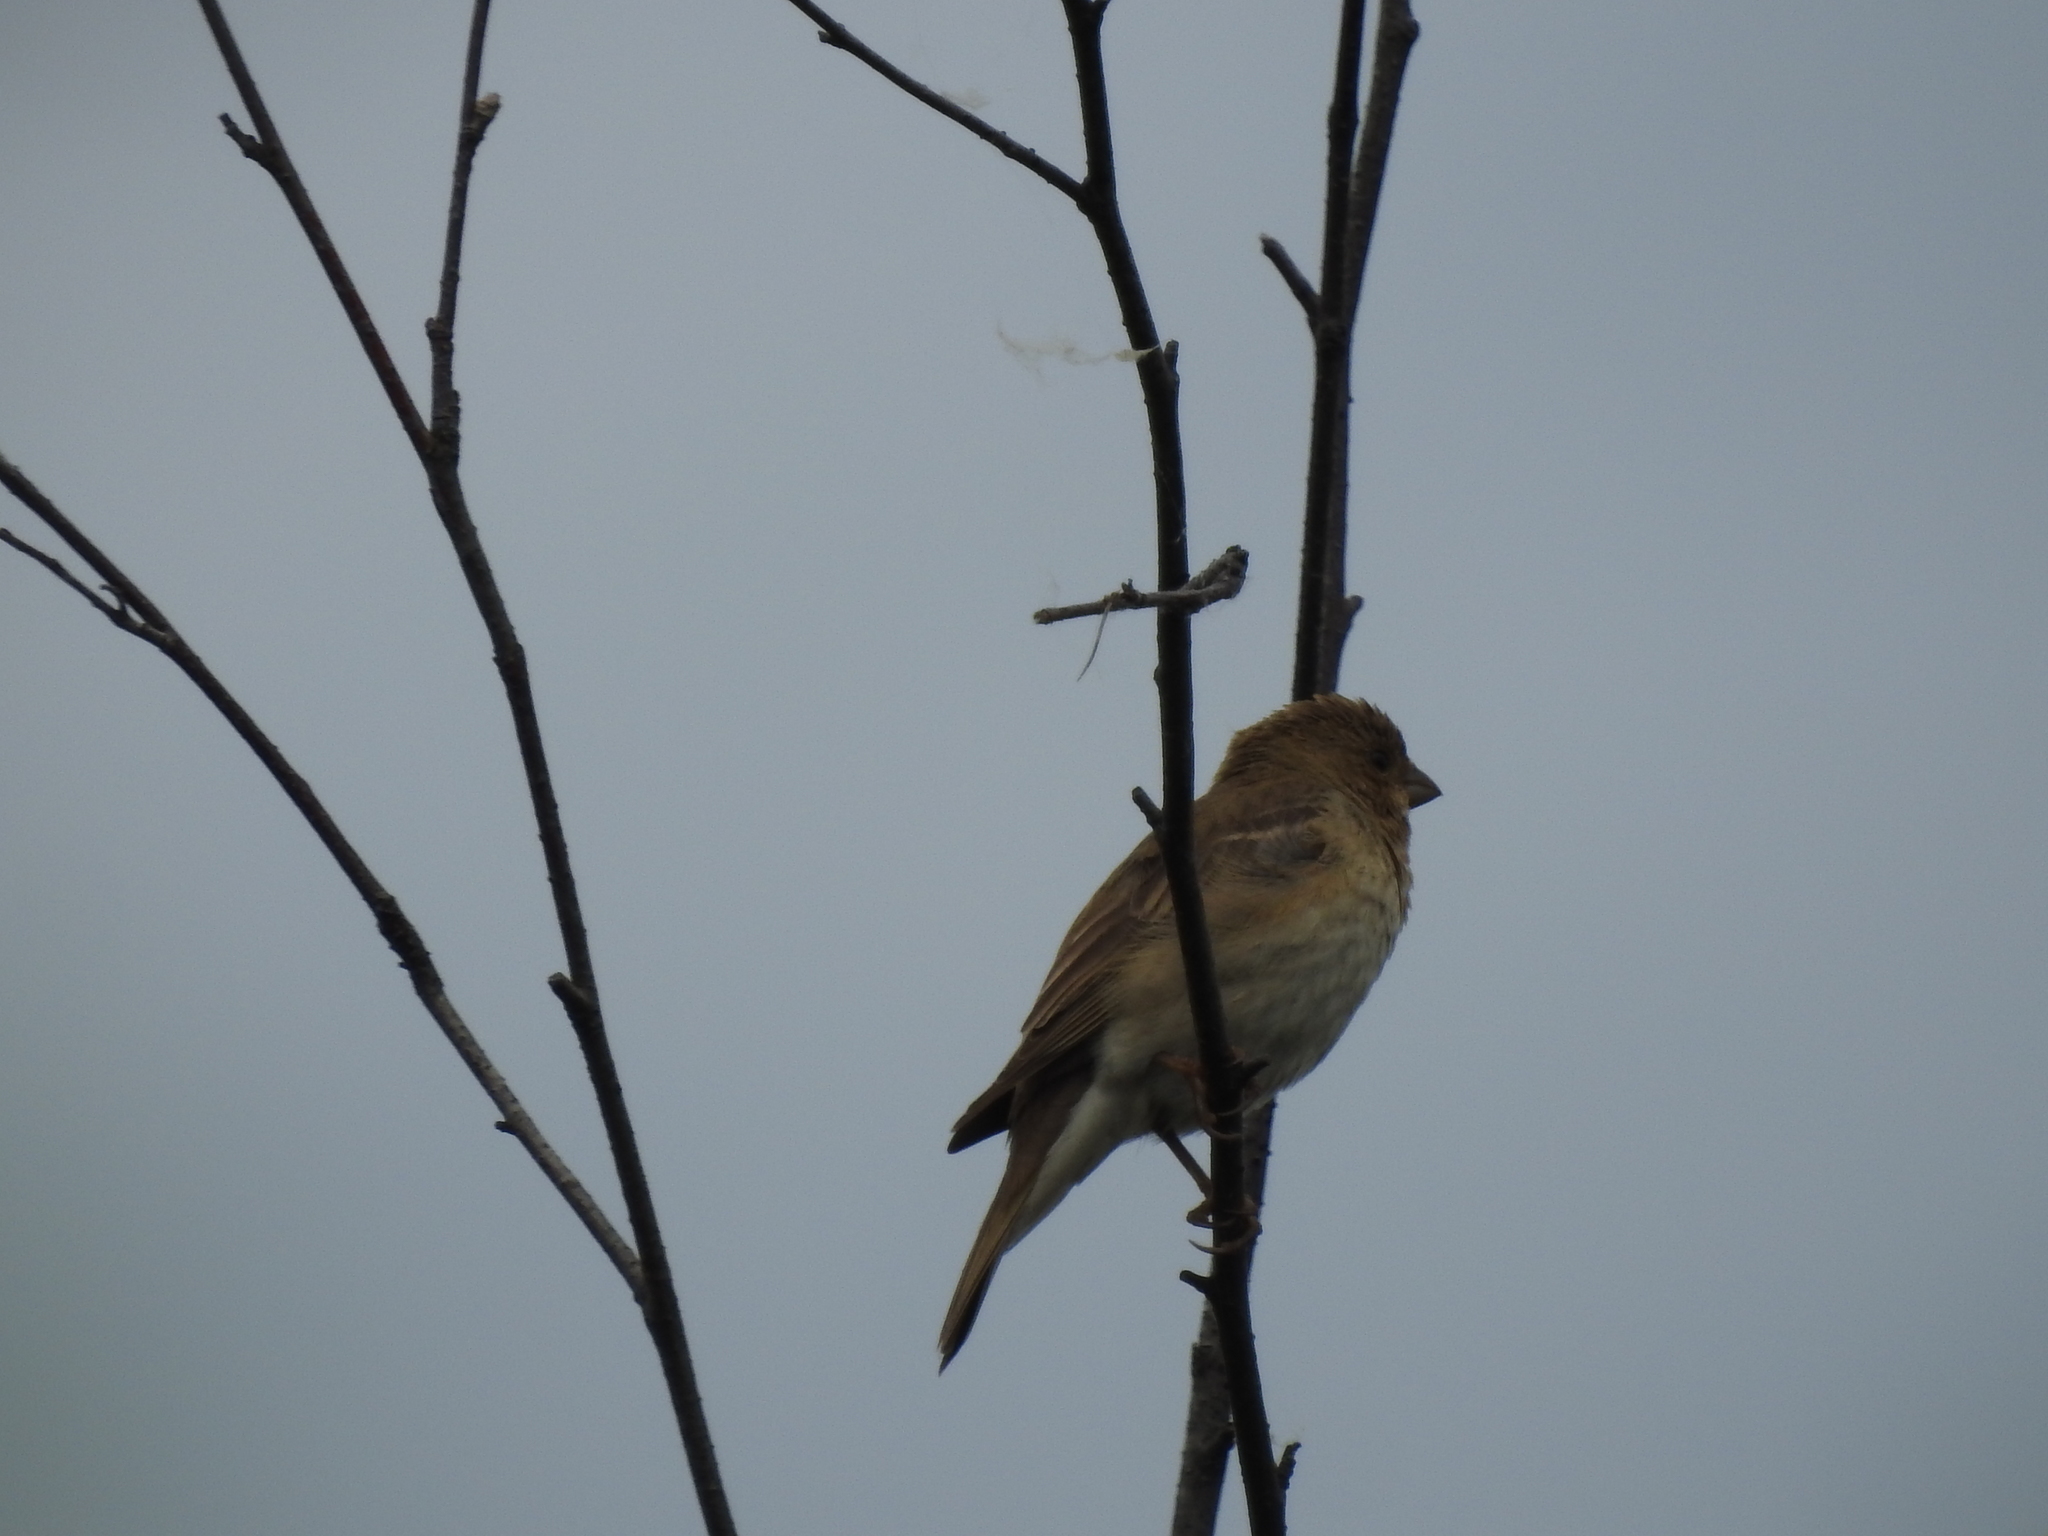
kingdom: Animalia
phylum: Chordata
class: Aves
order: Passeriformes
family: Fringillidae
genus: Carpodacus
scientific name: Carpodacus erythrinus
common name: Common rosefinch
